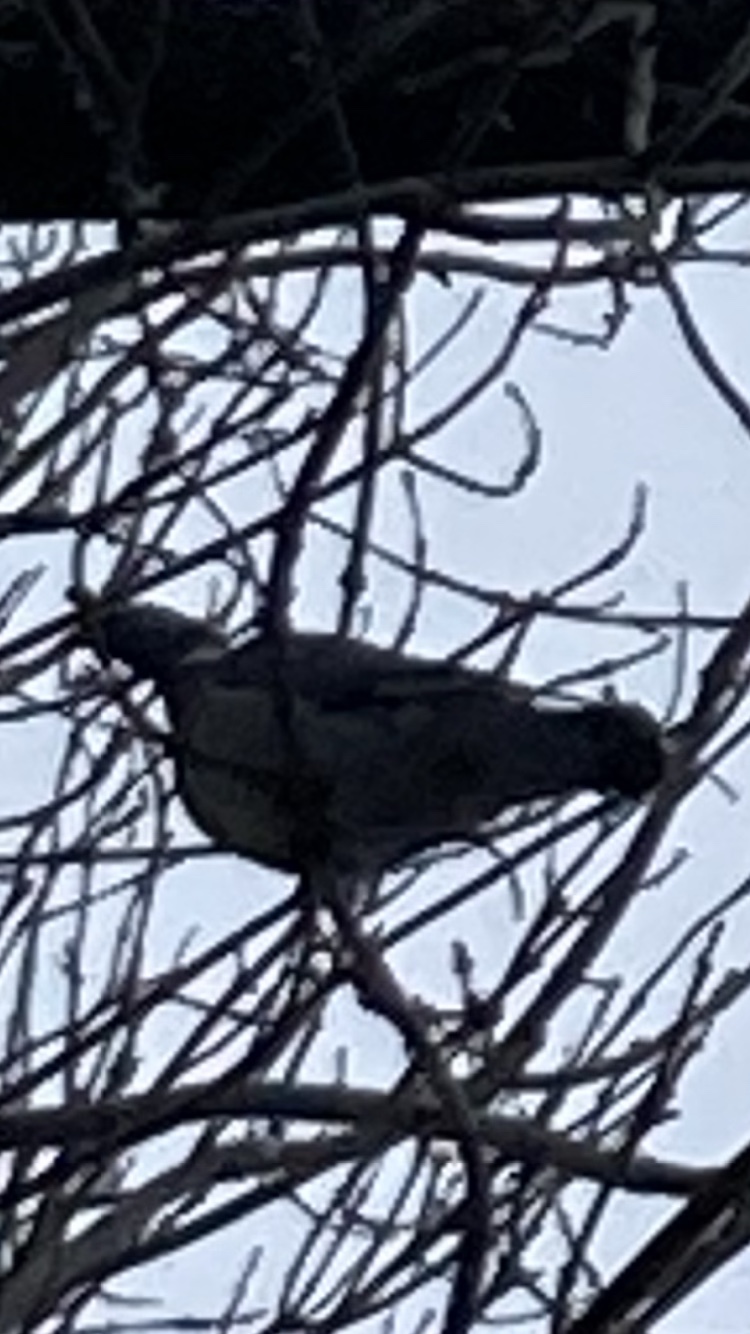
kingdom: Animalia
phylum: Chordata
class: Aves
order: Columbiformes
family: Columbidae
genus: Columba
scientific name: Columba palumbus
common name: Common wood pigeon
